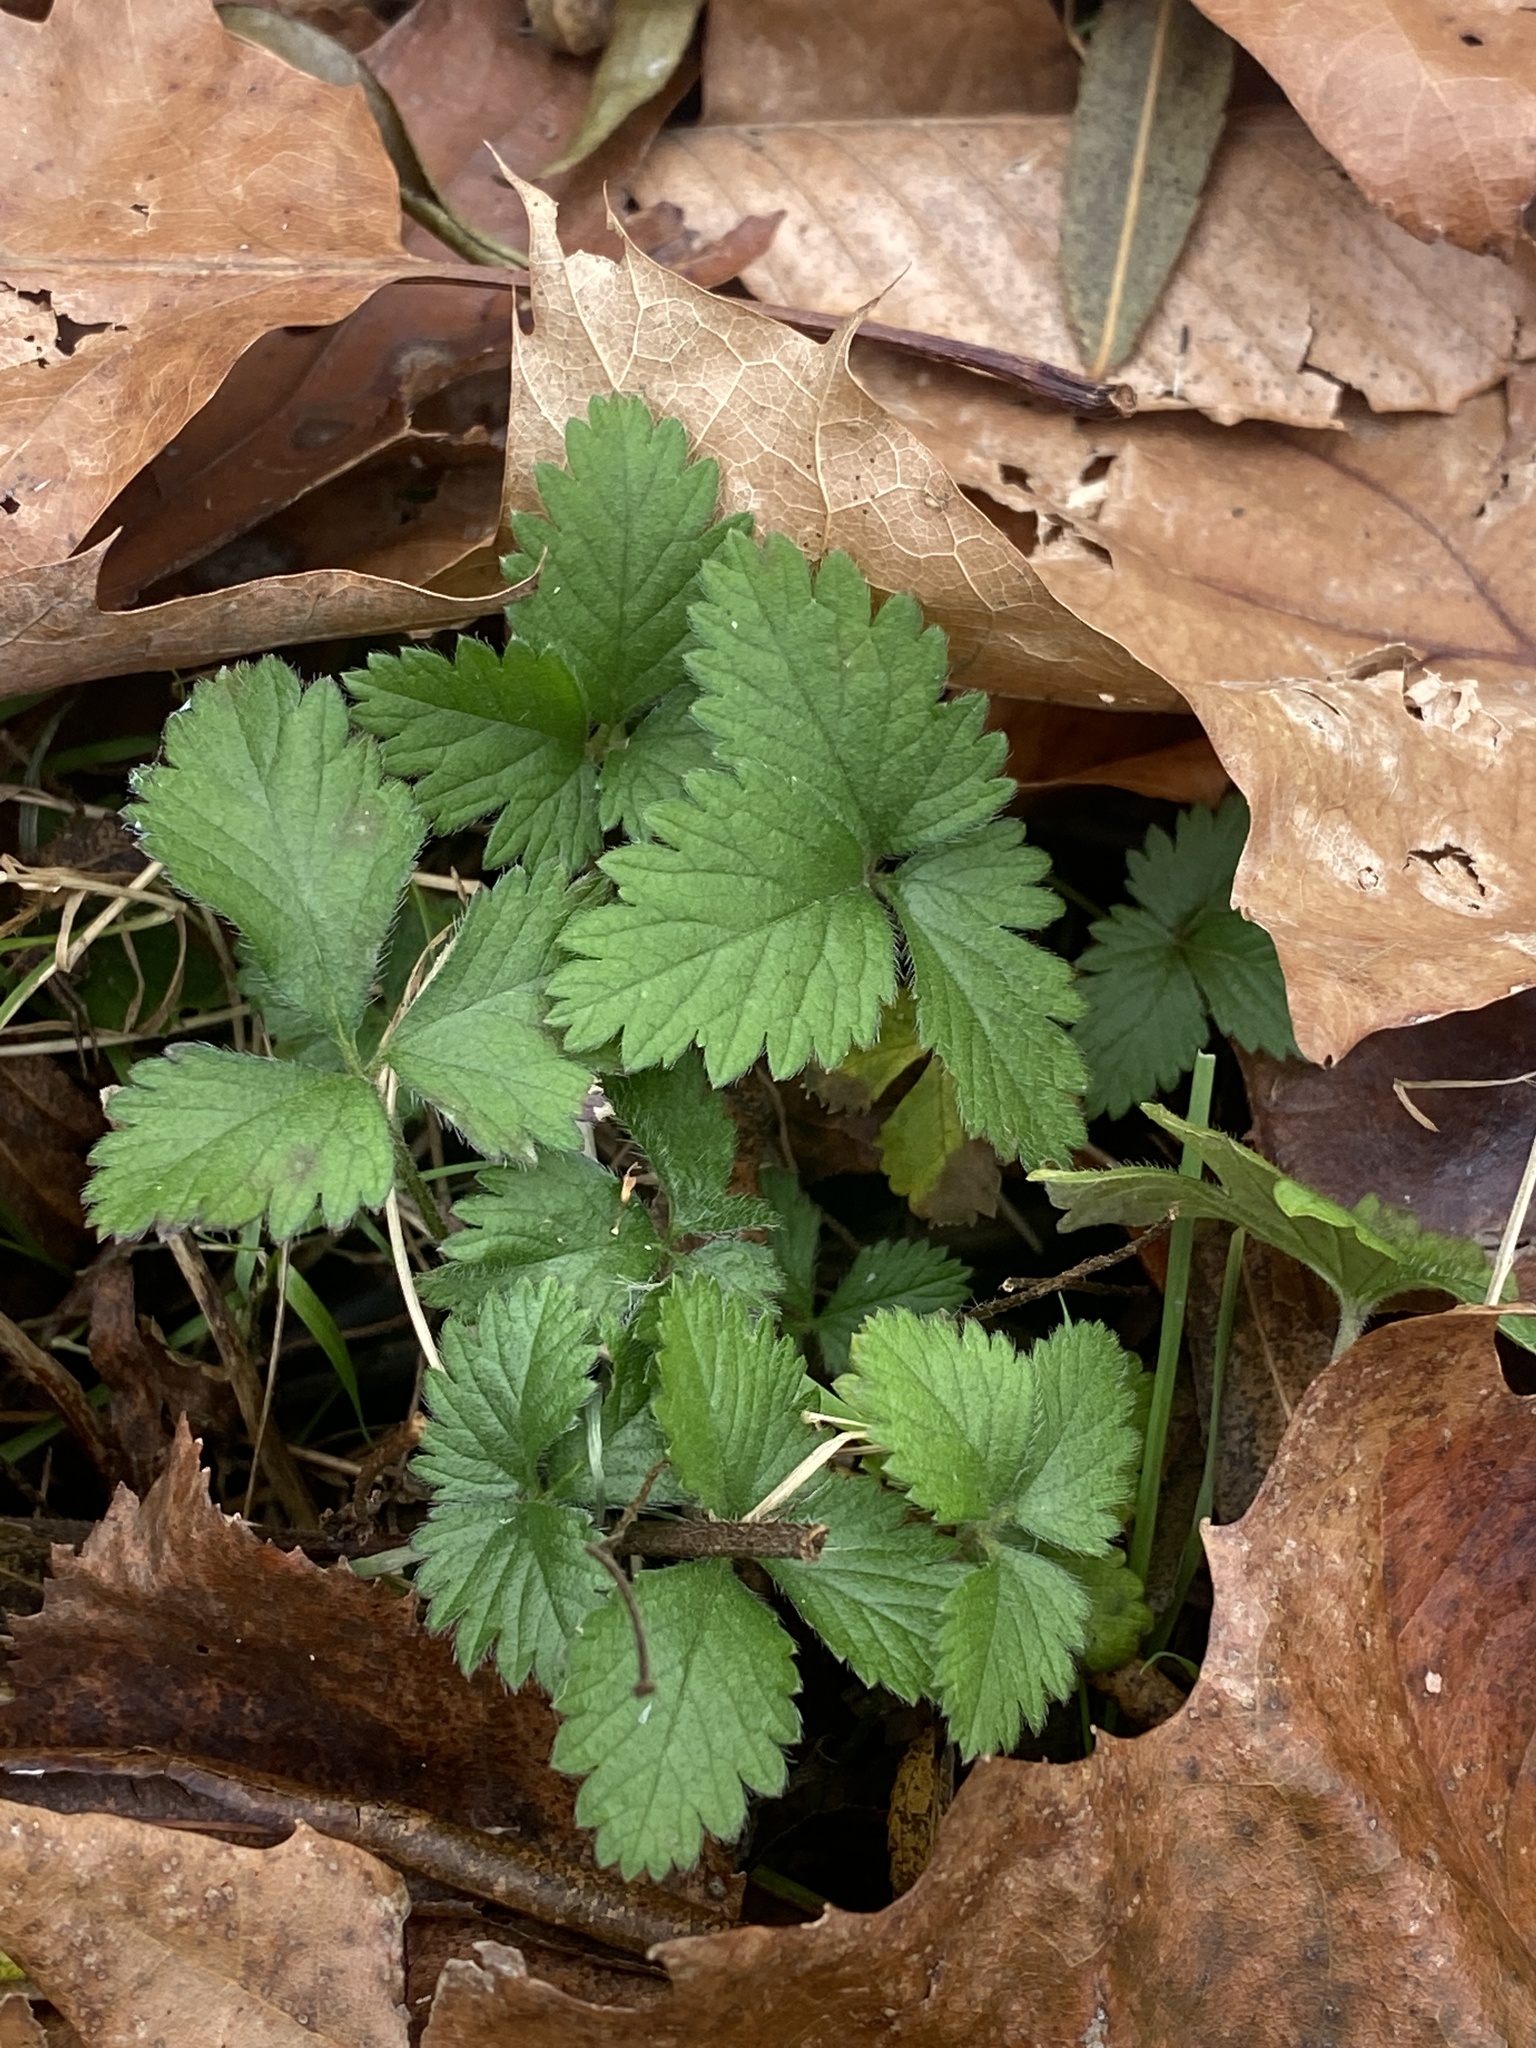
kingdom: Plantae
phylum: Tracheophyta
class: Magnoliopsida
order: Rosales
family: Rosaceae
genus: Potentilla
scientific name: Potentilla indica
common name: Yellow-flowered strawberry
